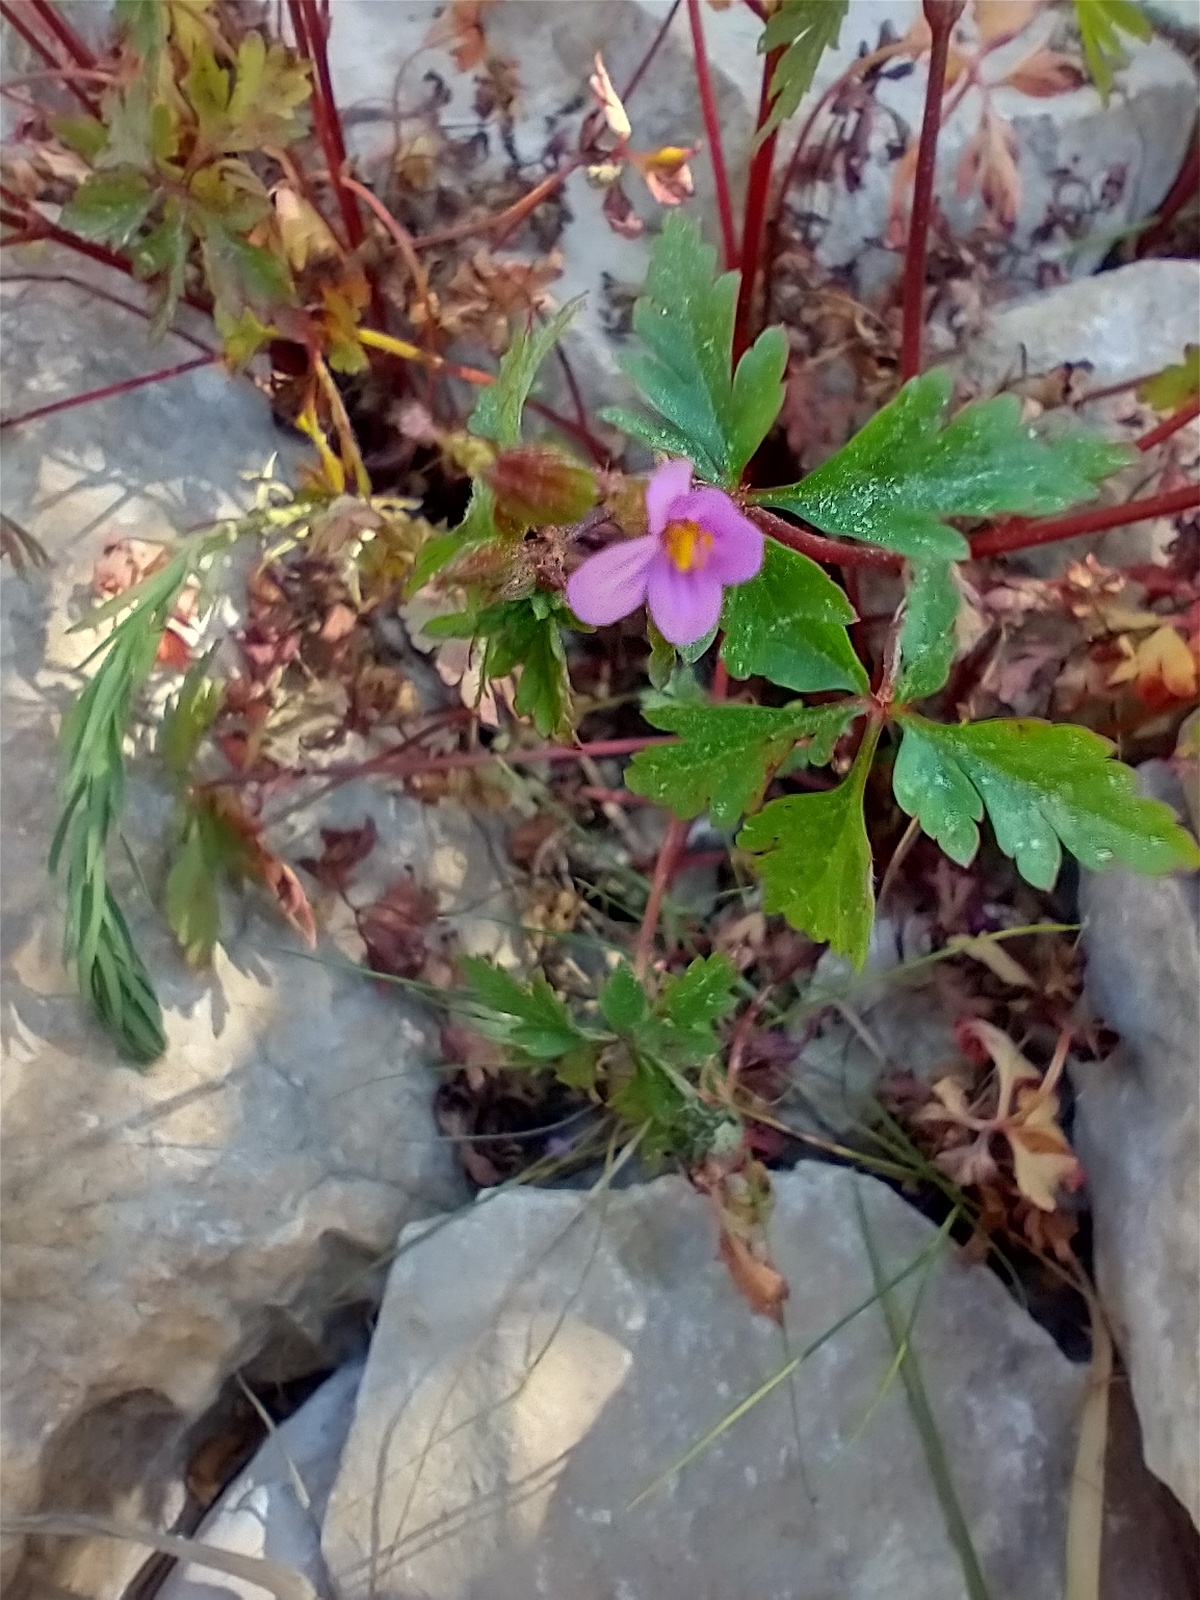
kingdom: Plantae
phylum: Tracheophyta
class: Magnoliopsida
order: Geraniales
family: Geraniaceae
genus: Geranium
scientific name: Geranium purpureum
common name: Little-robin
